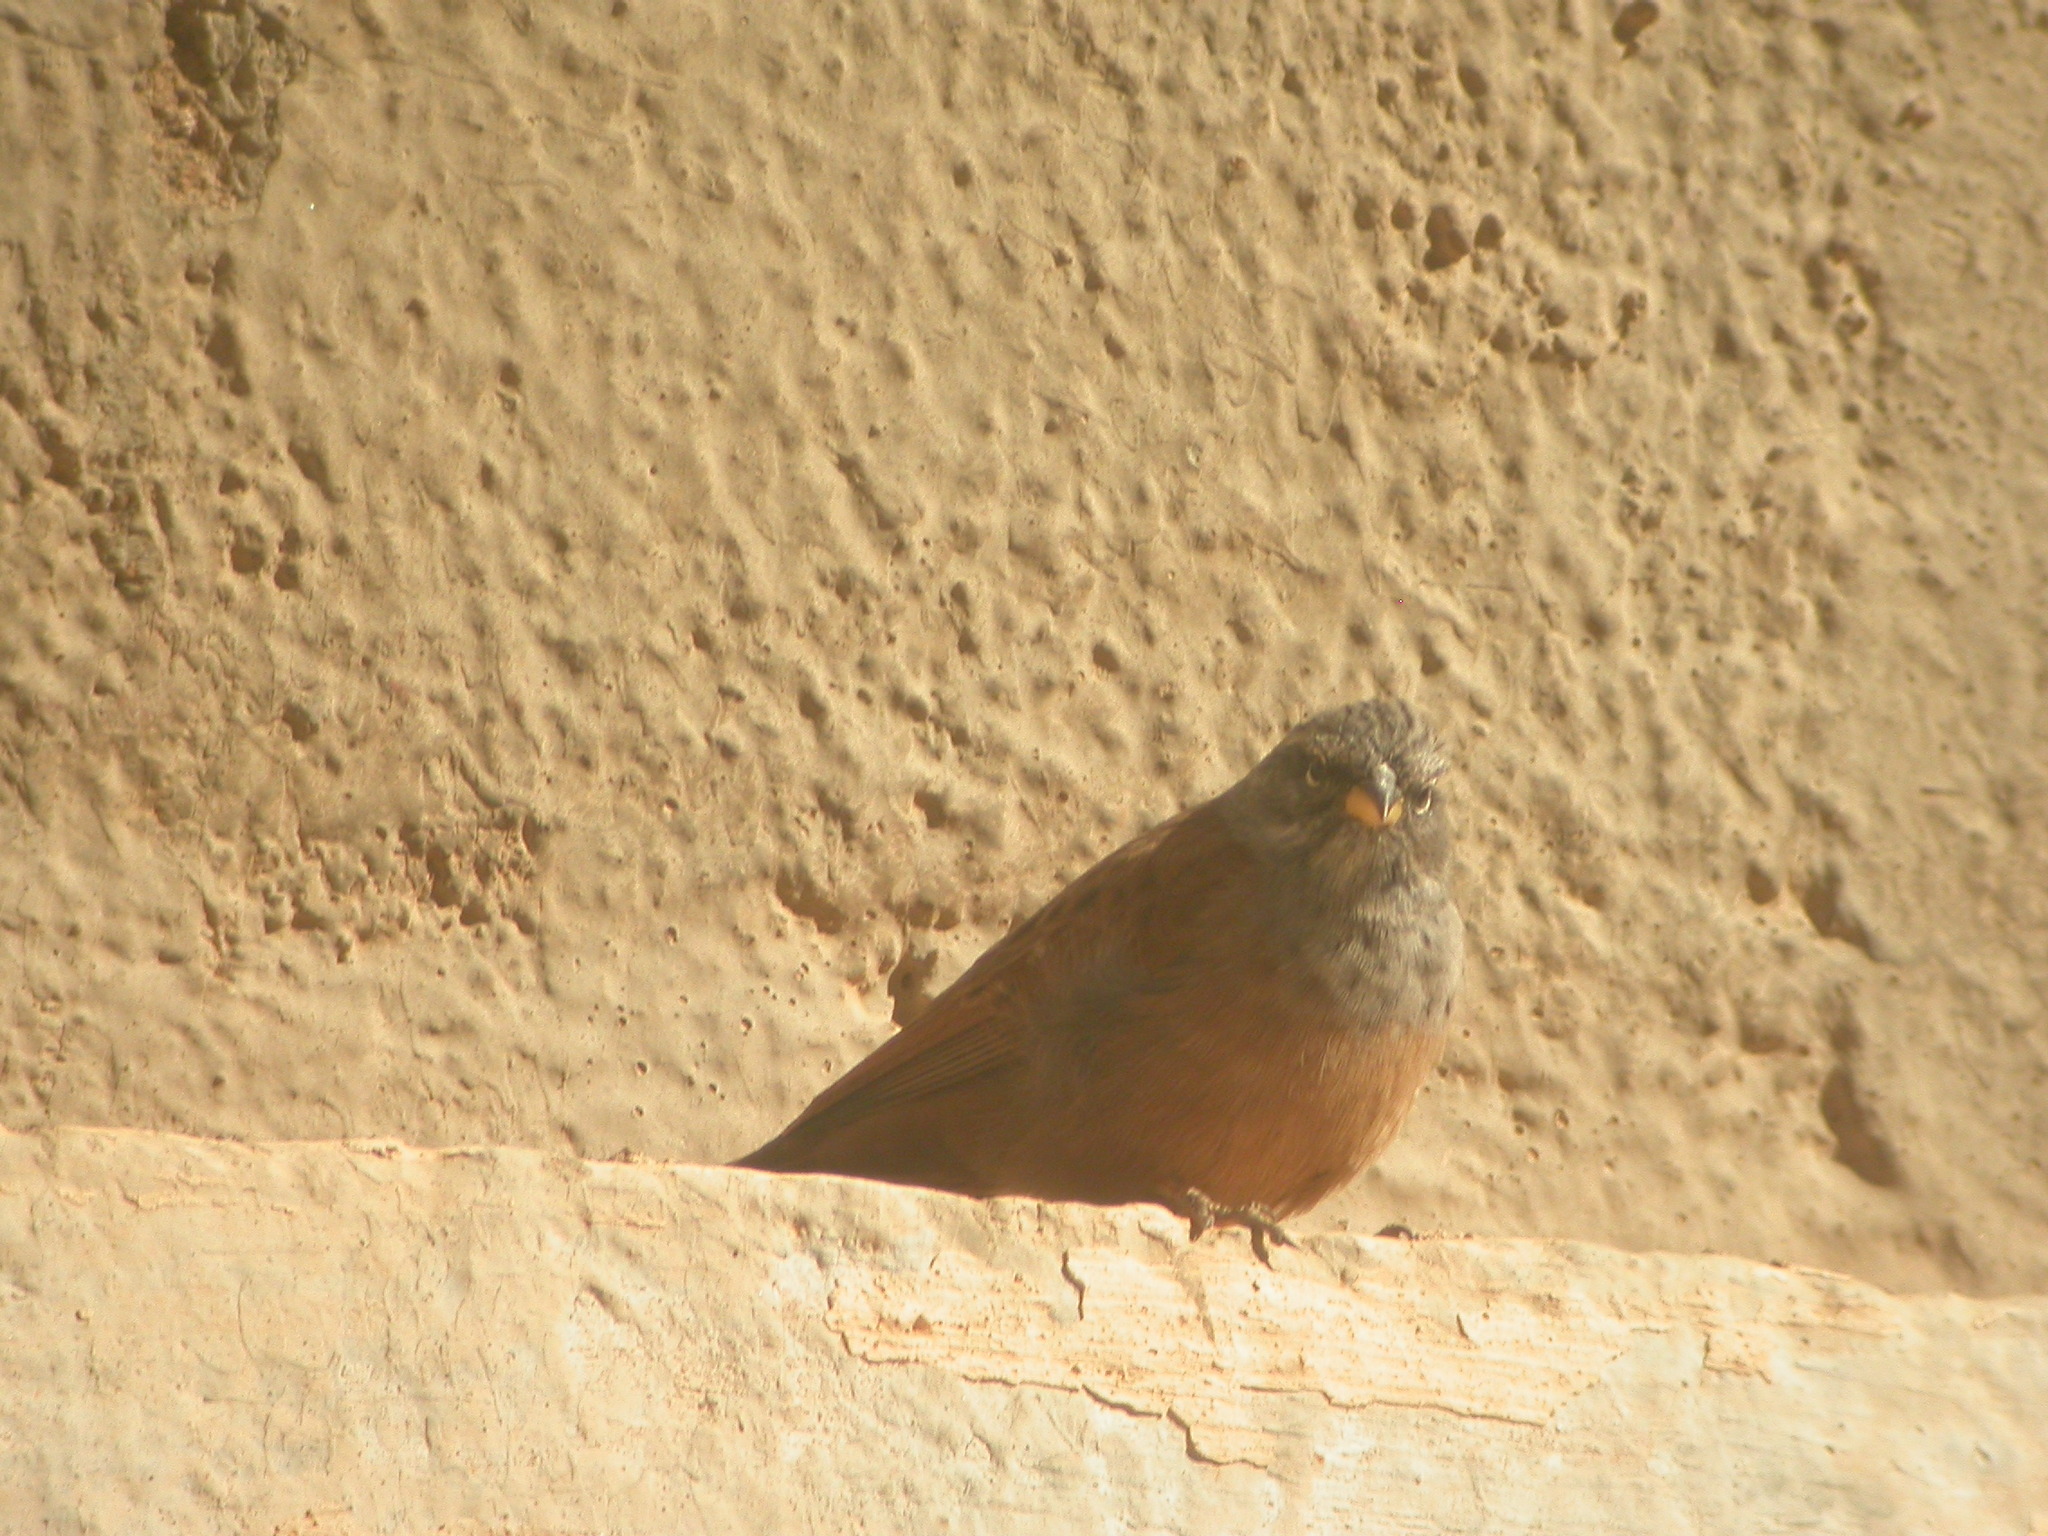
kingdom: Animalia
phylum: Chordata
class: Aves
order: Passeriformes
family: Emberizidae
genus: Emberiza
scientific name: Emberiza sahari
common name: House bunting
